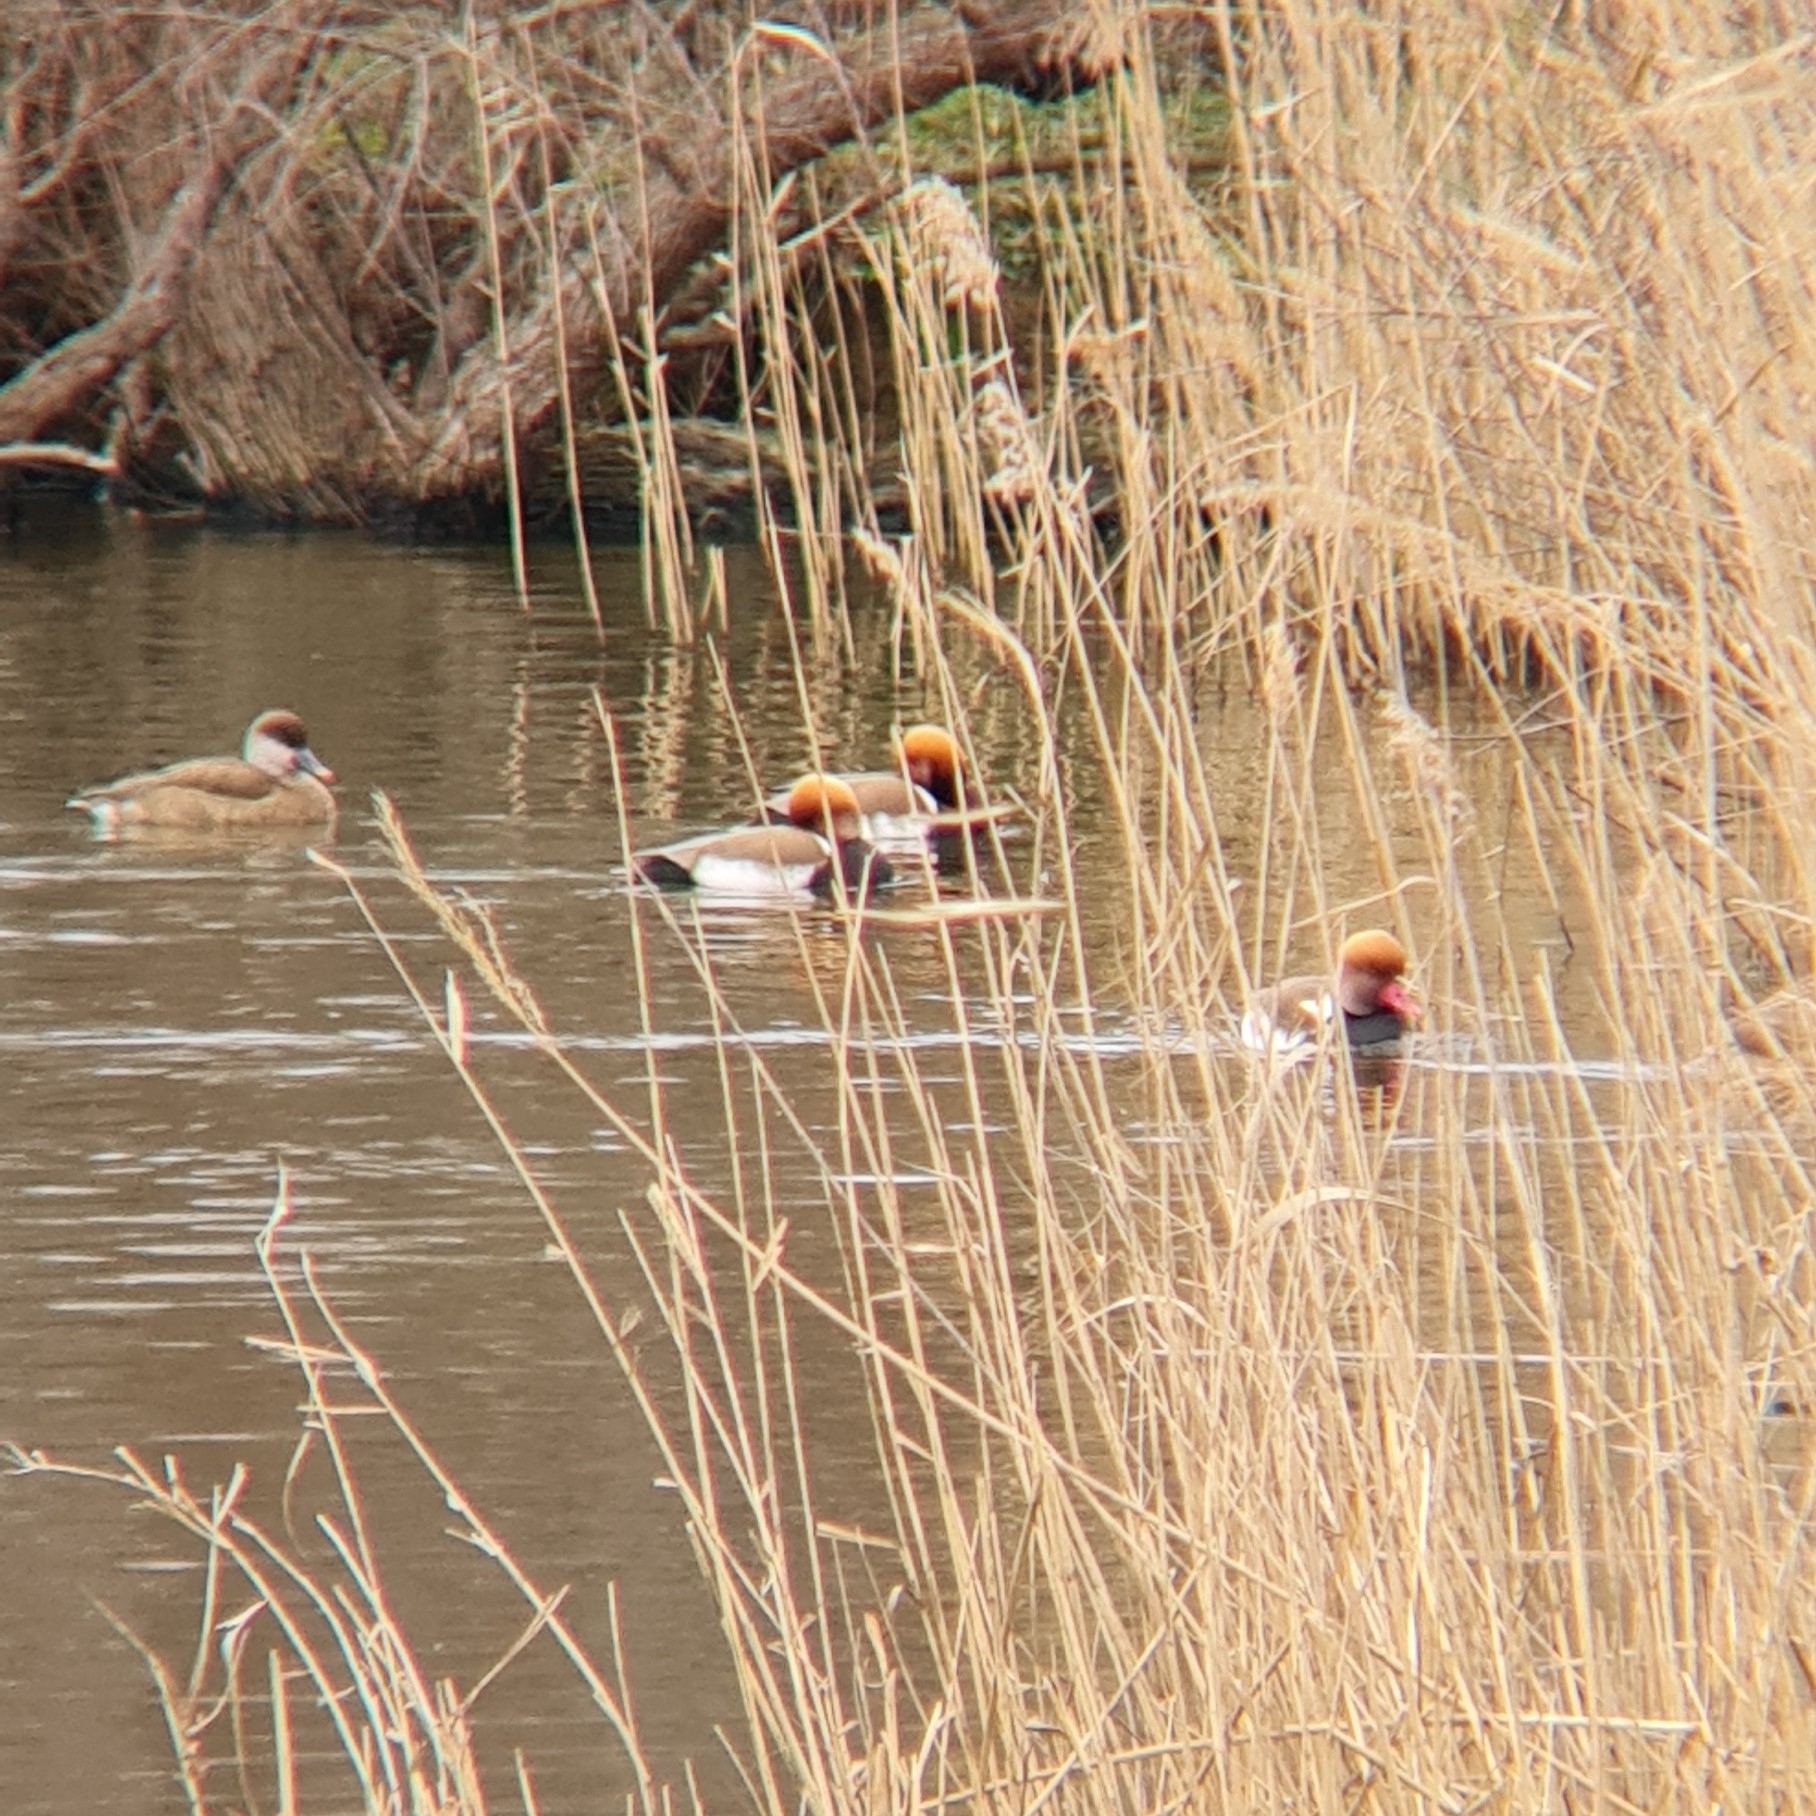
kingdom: Animalia
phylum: Chordata
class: Aves
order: Anseriformes
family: Anatidae
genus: Netta
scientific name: Netta rufina
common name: Red-crested pochard
